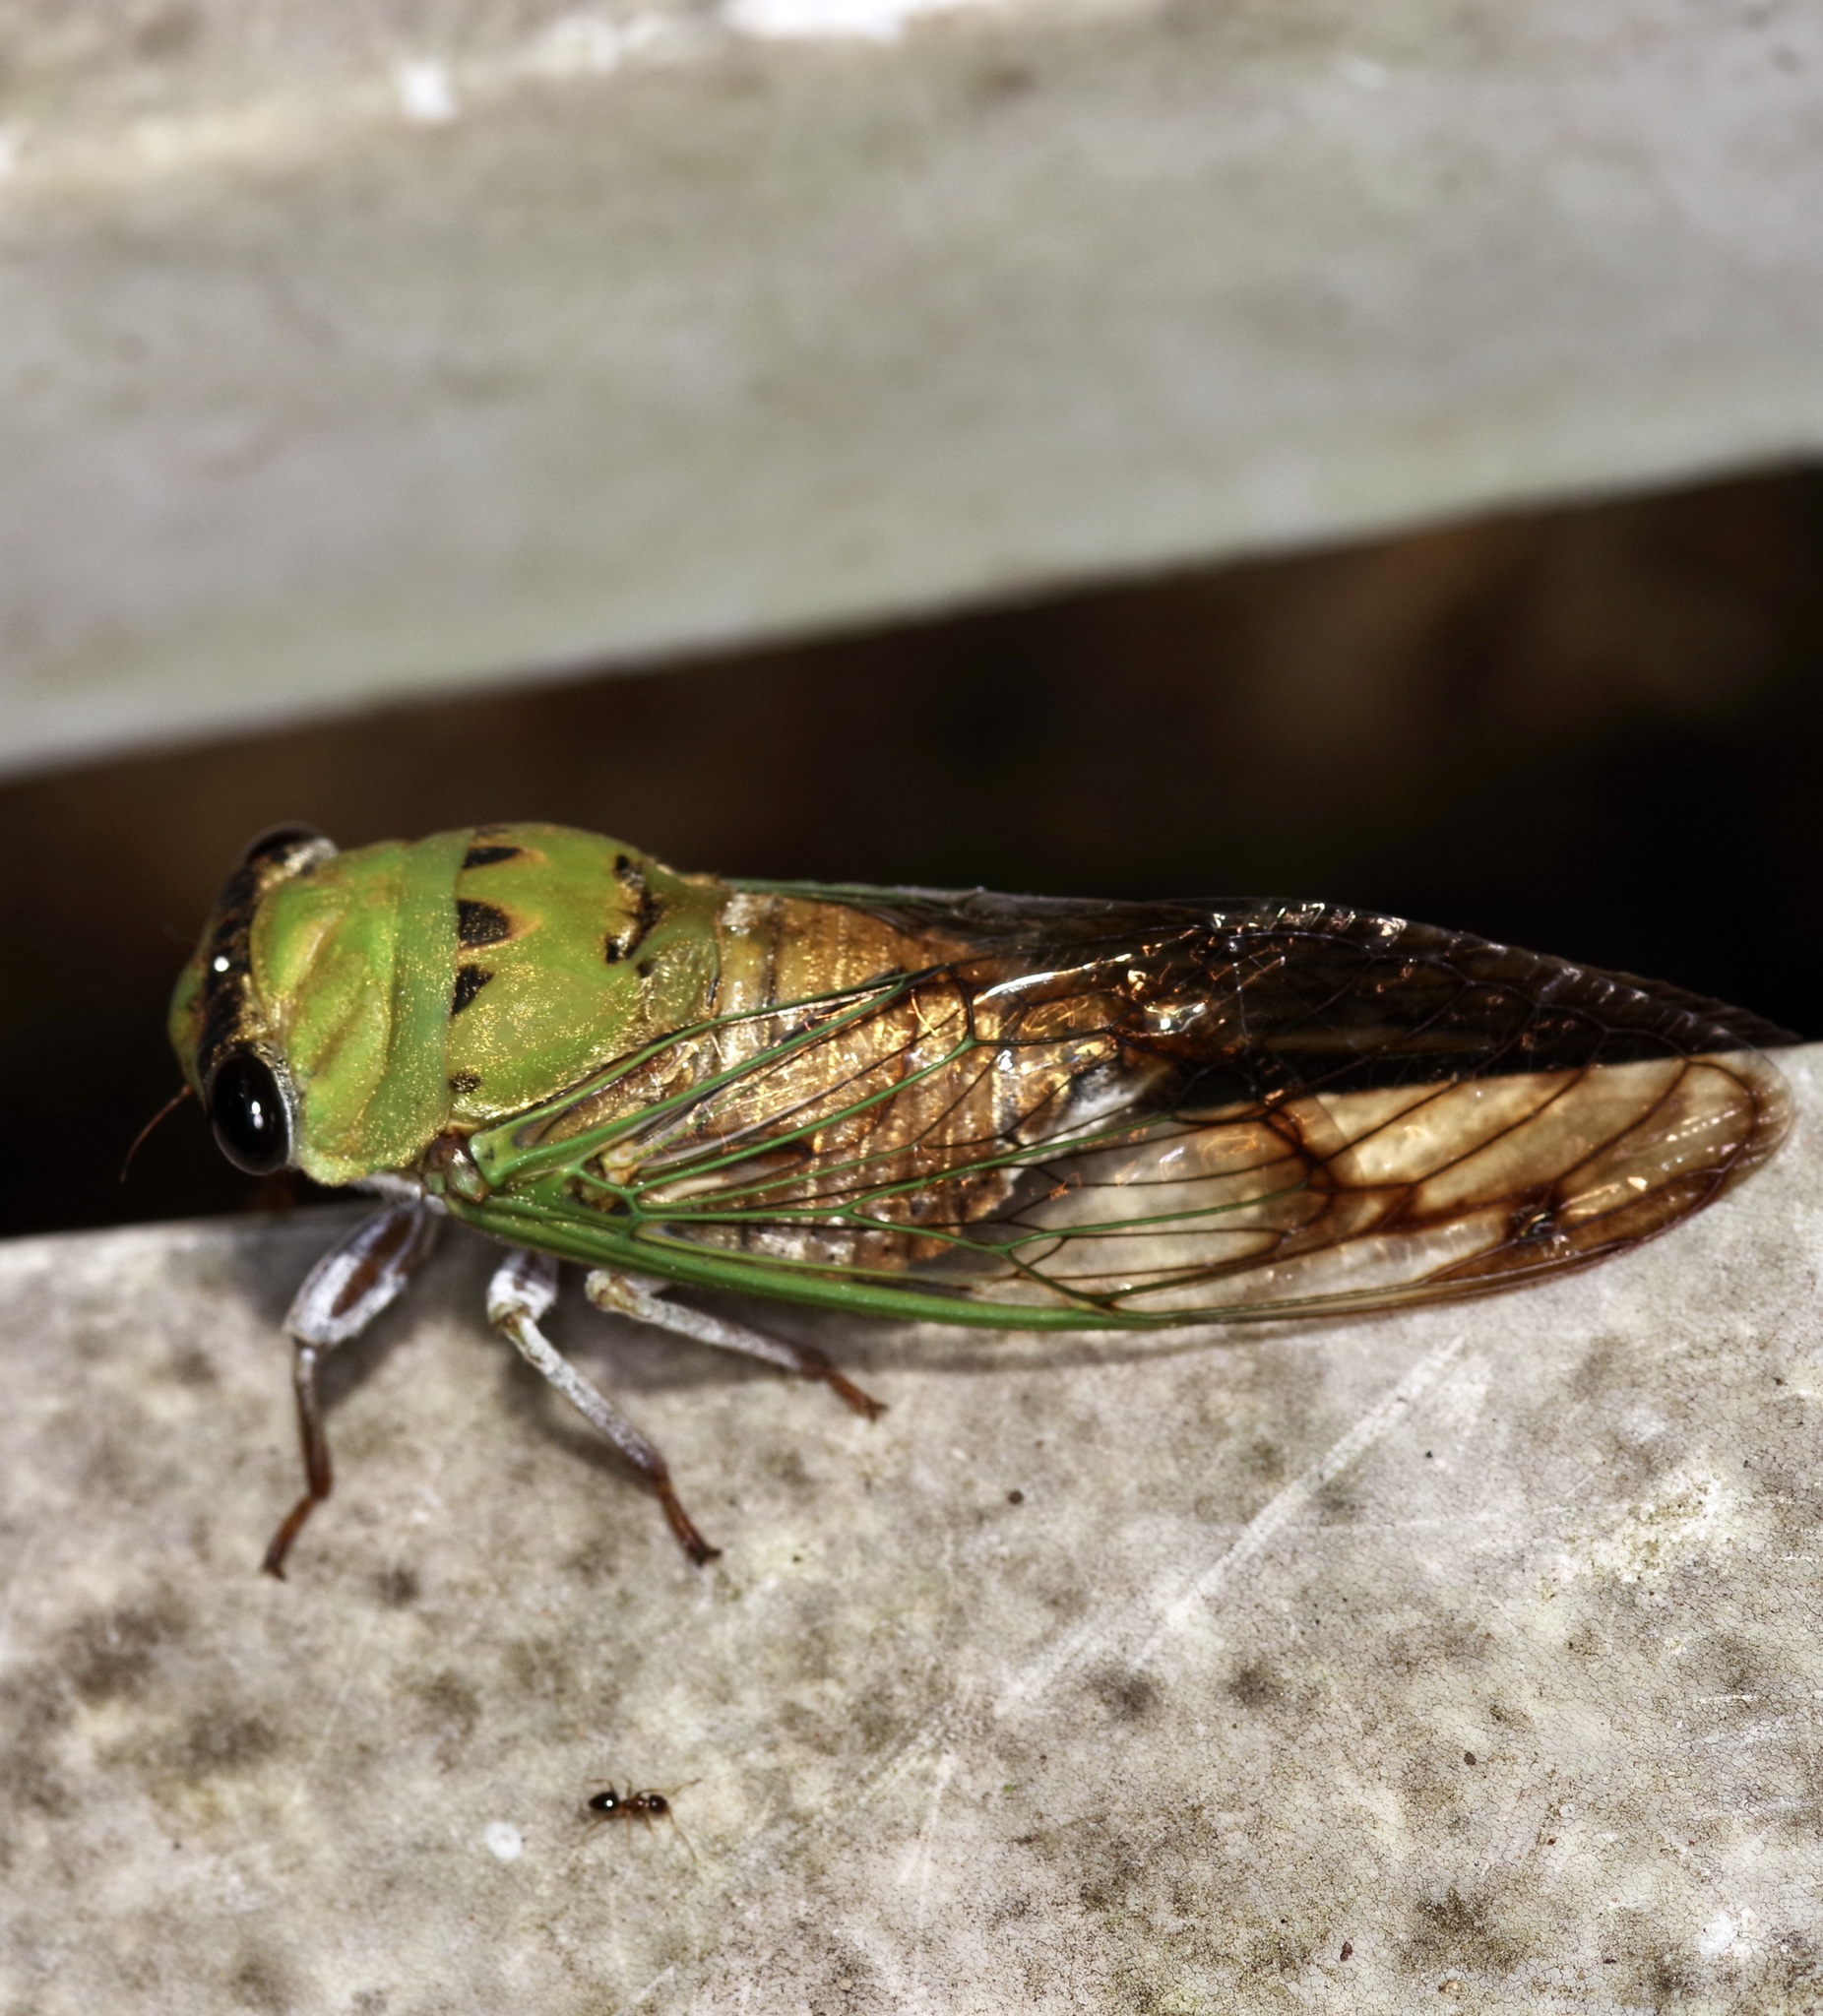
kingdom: Animalia
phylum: Arthropoda
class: Insecta
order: Hemiptera
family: Cicadidae
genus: Neotibicen
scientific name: Neotibicen superbus
